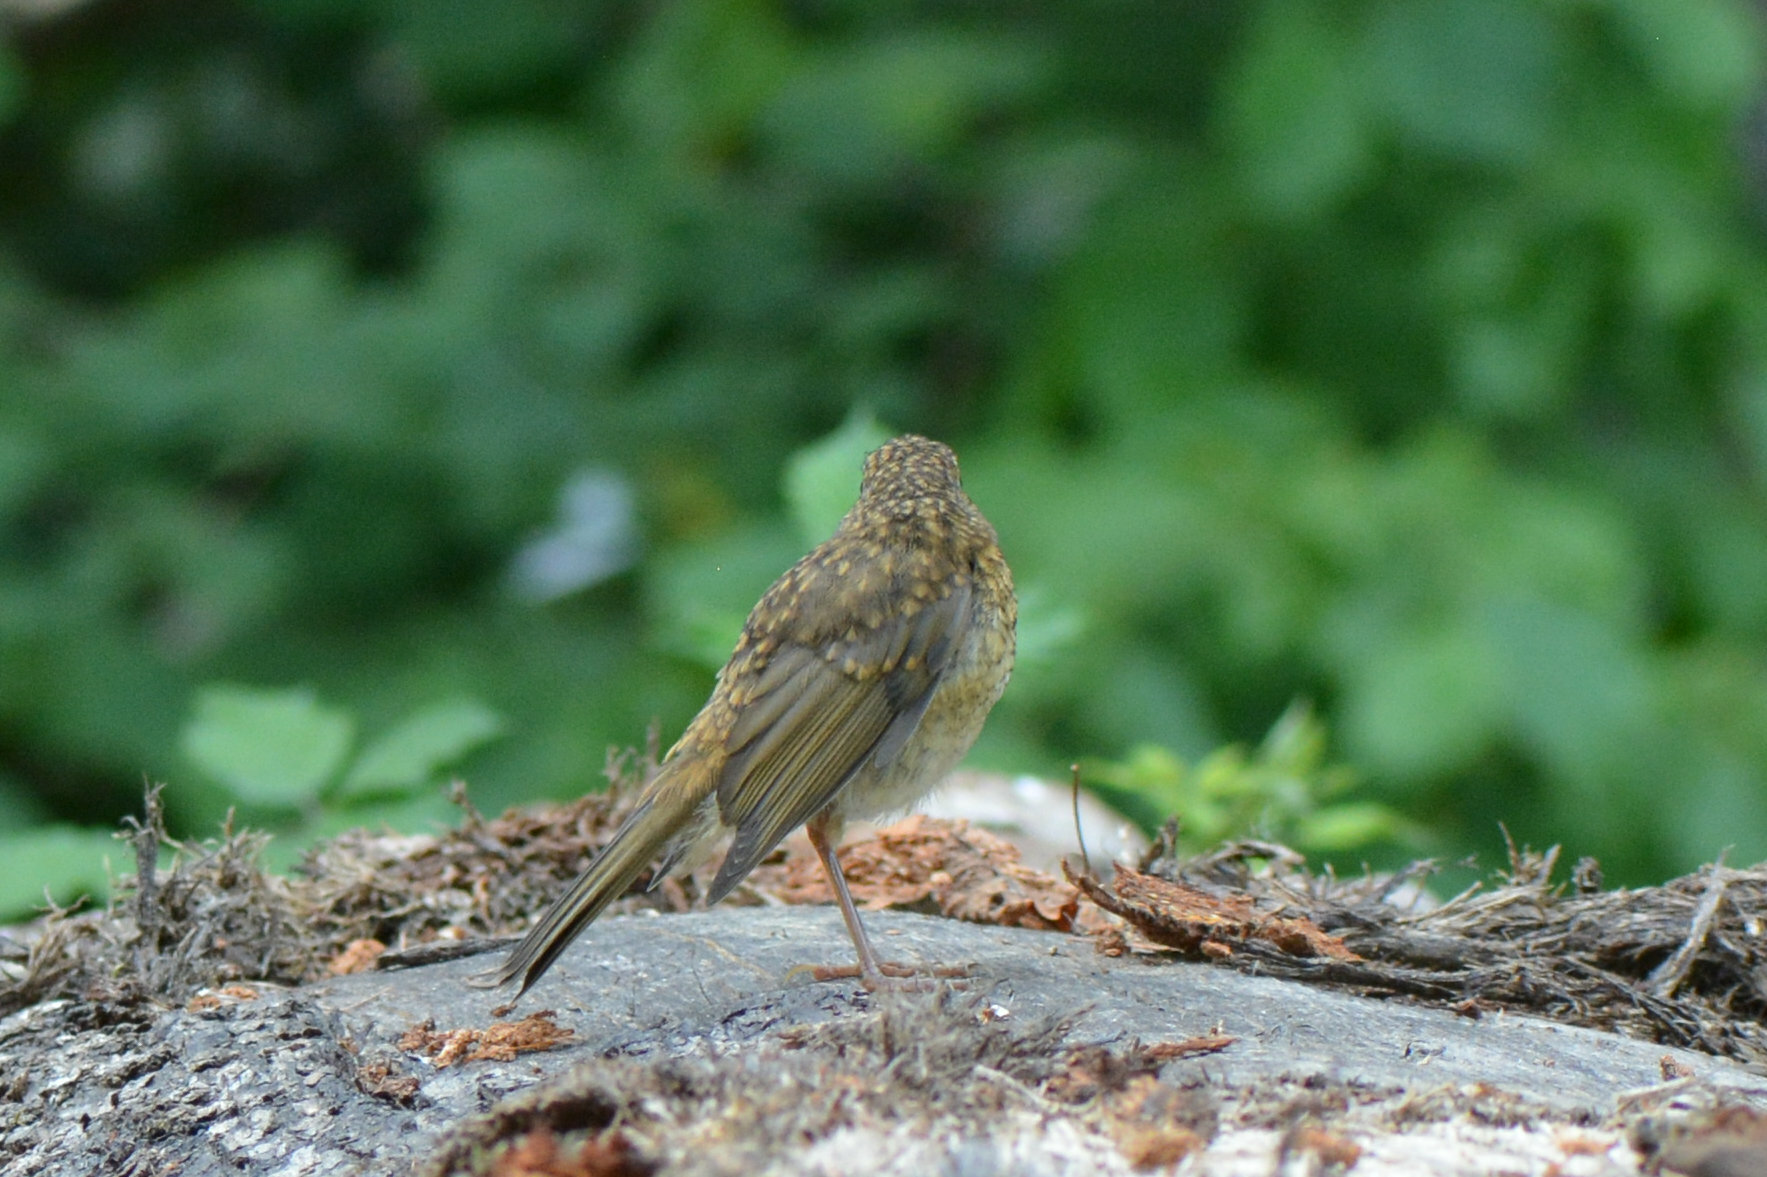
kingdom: Animalia
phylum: Chordata
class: Aves
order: Passeriformes
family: Muscicapidae
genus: Erithacus
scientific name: Erithacus rubecula
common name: European robin
